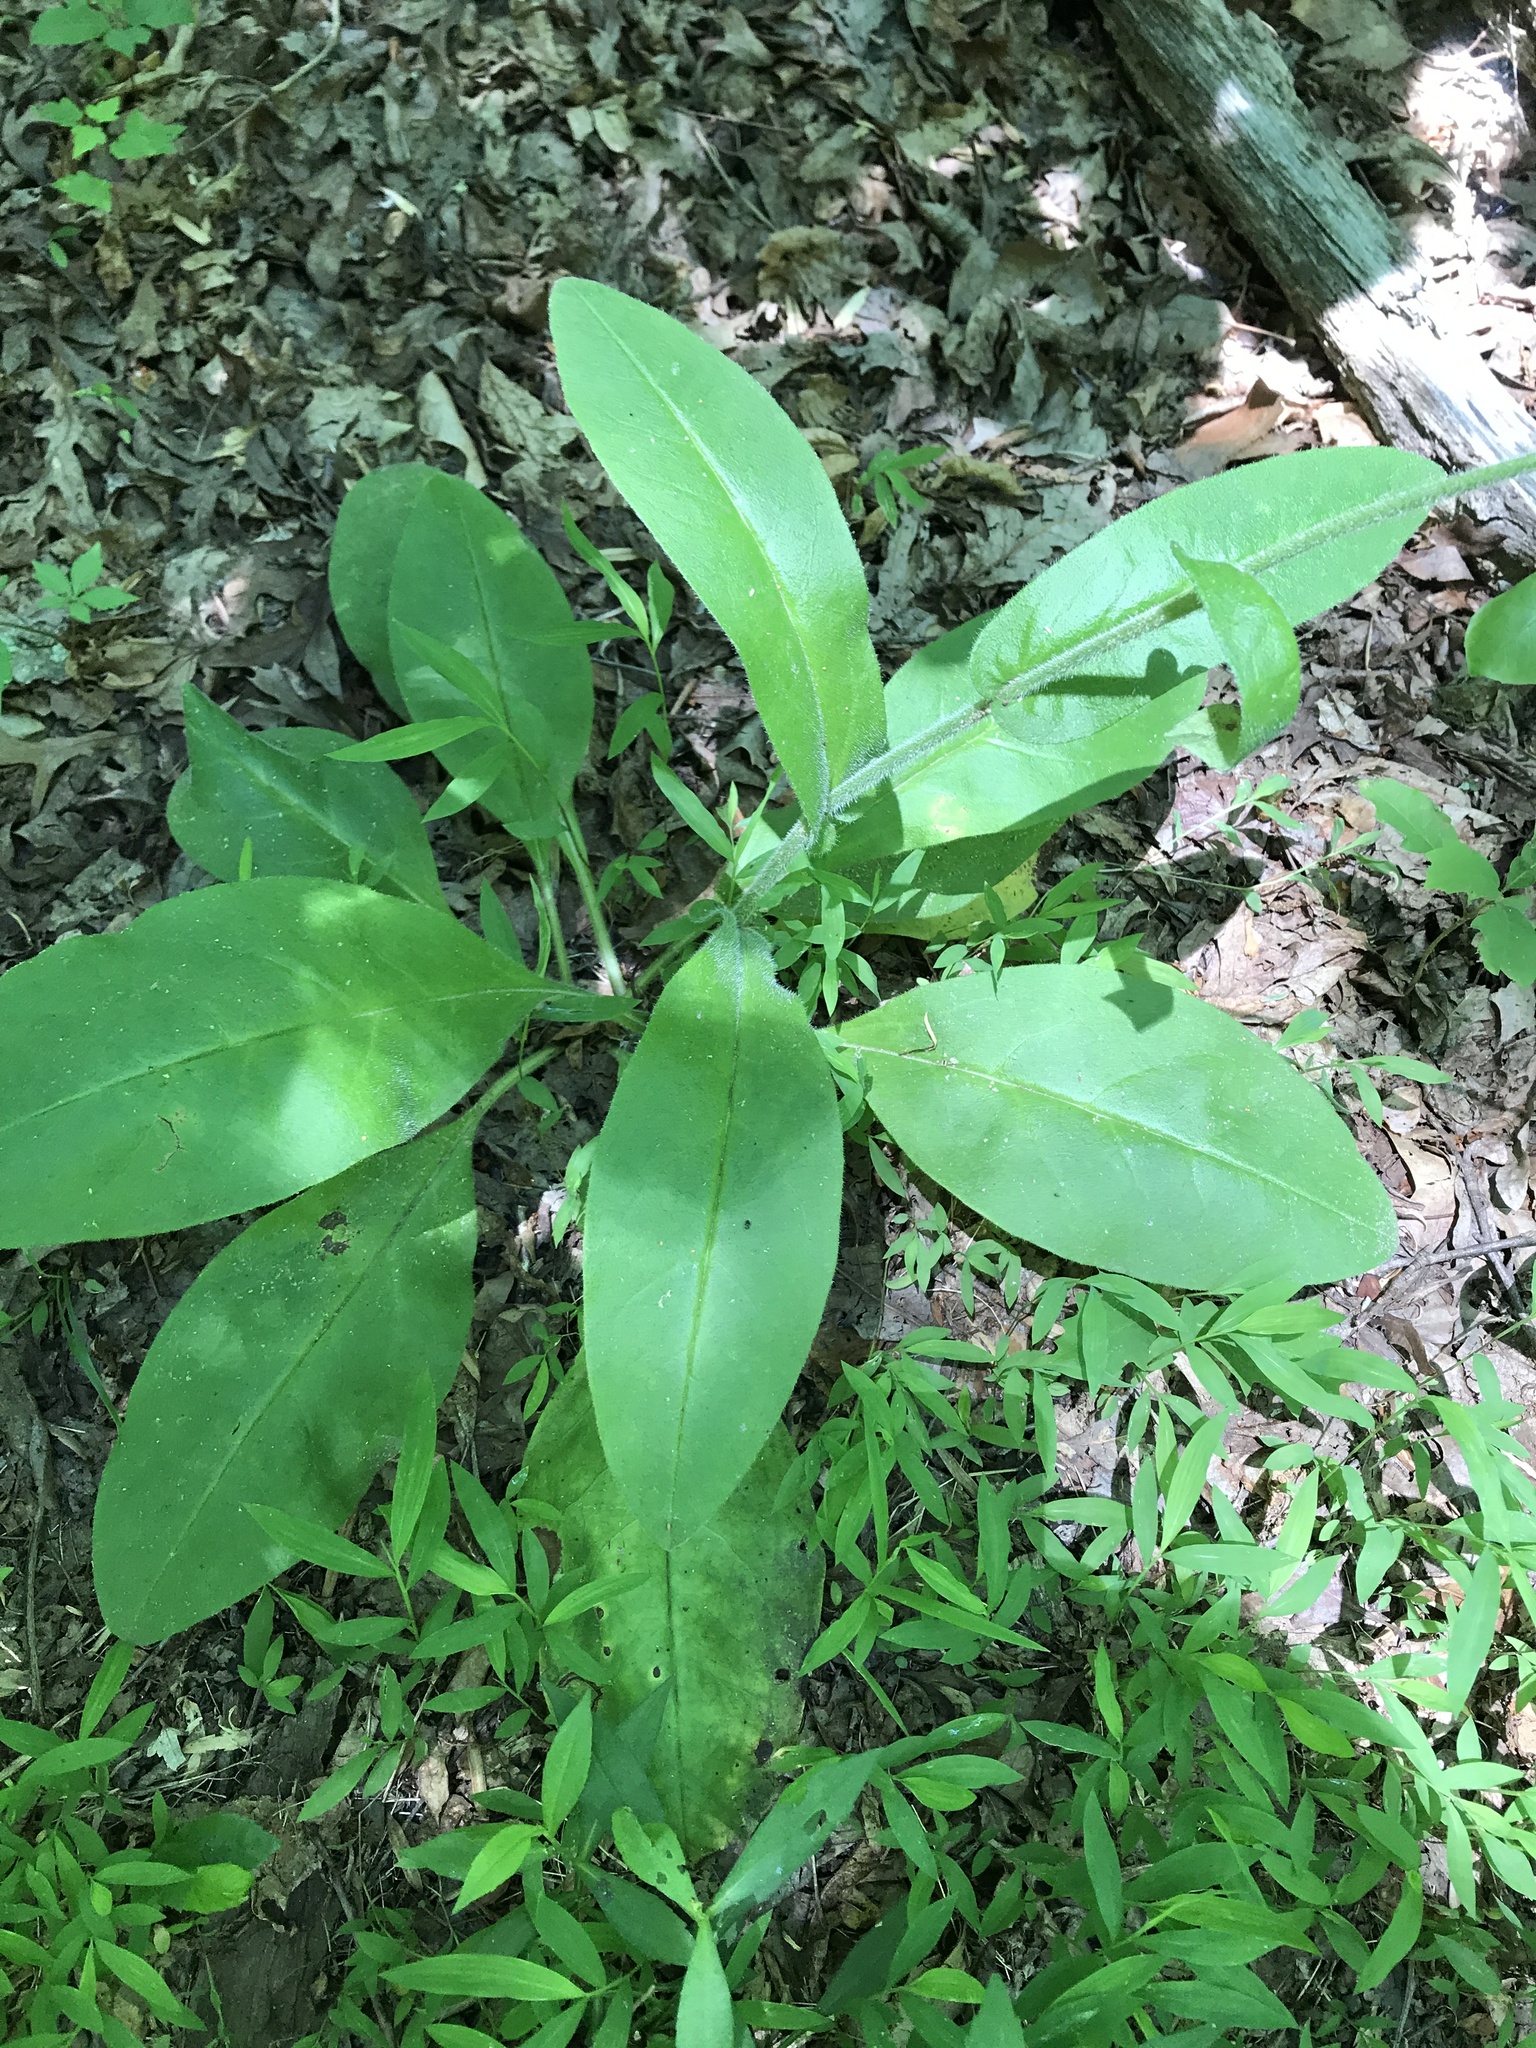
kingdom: Plantae
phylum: Tracheophyta
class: Magnoliopsida
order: Boraginales
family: Boraginaceae
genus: Andersonglossum
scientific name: Andersonglossum virginianum
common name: Wild comfrey
